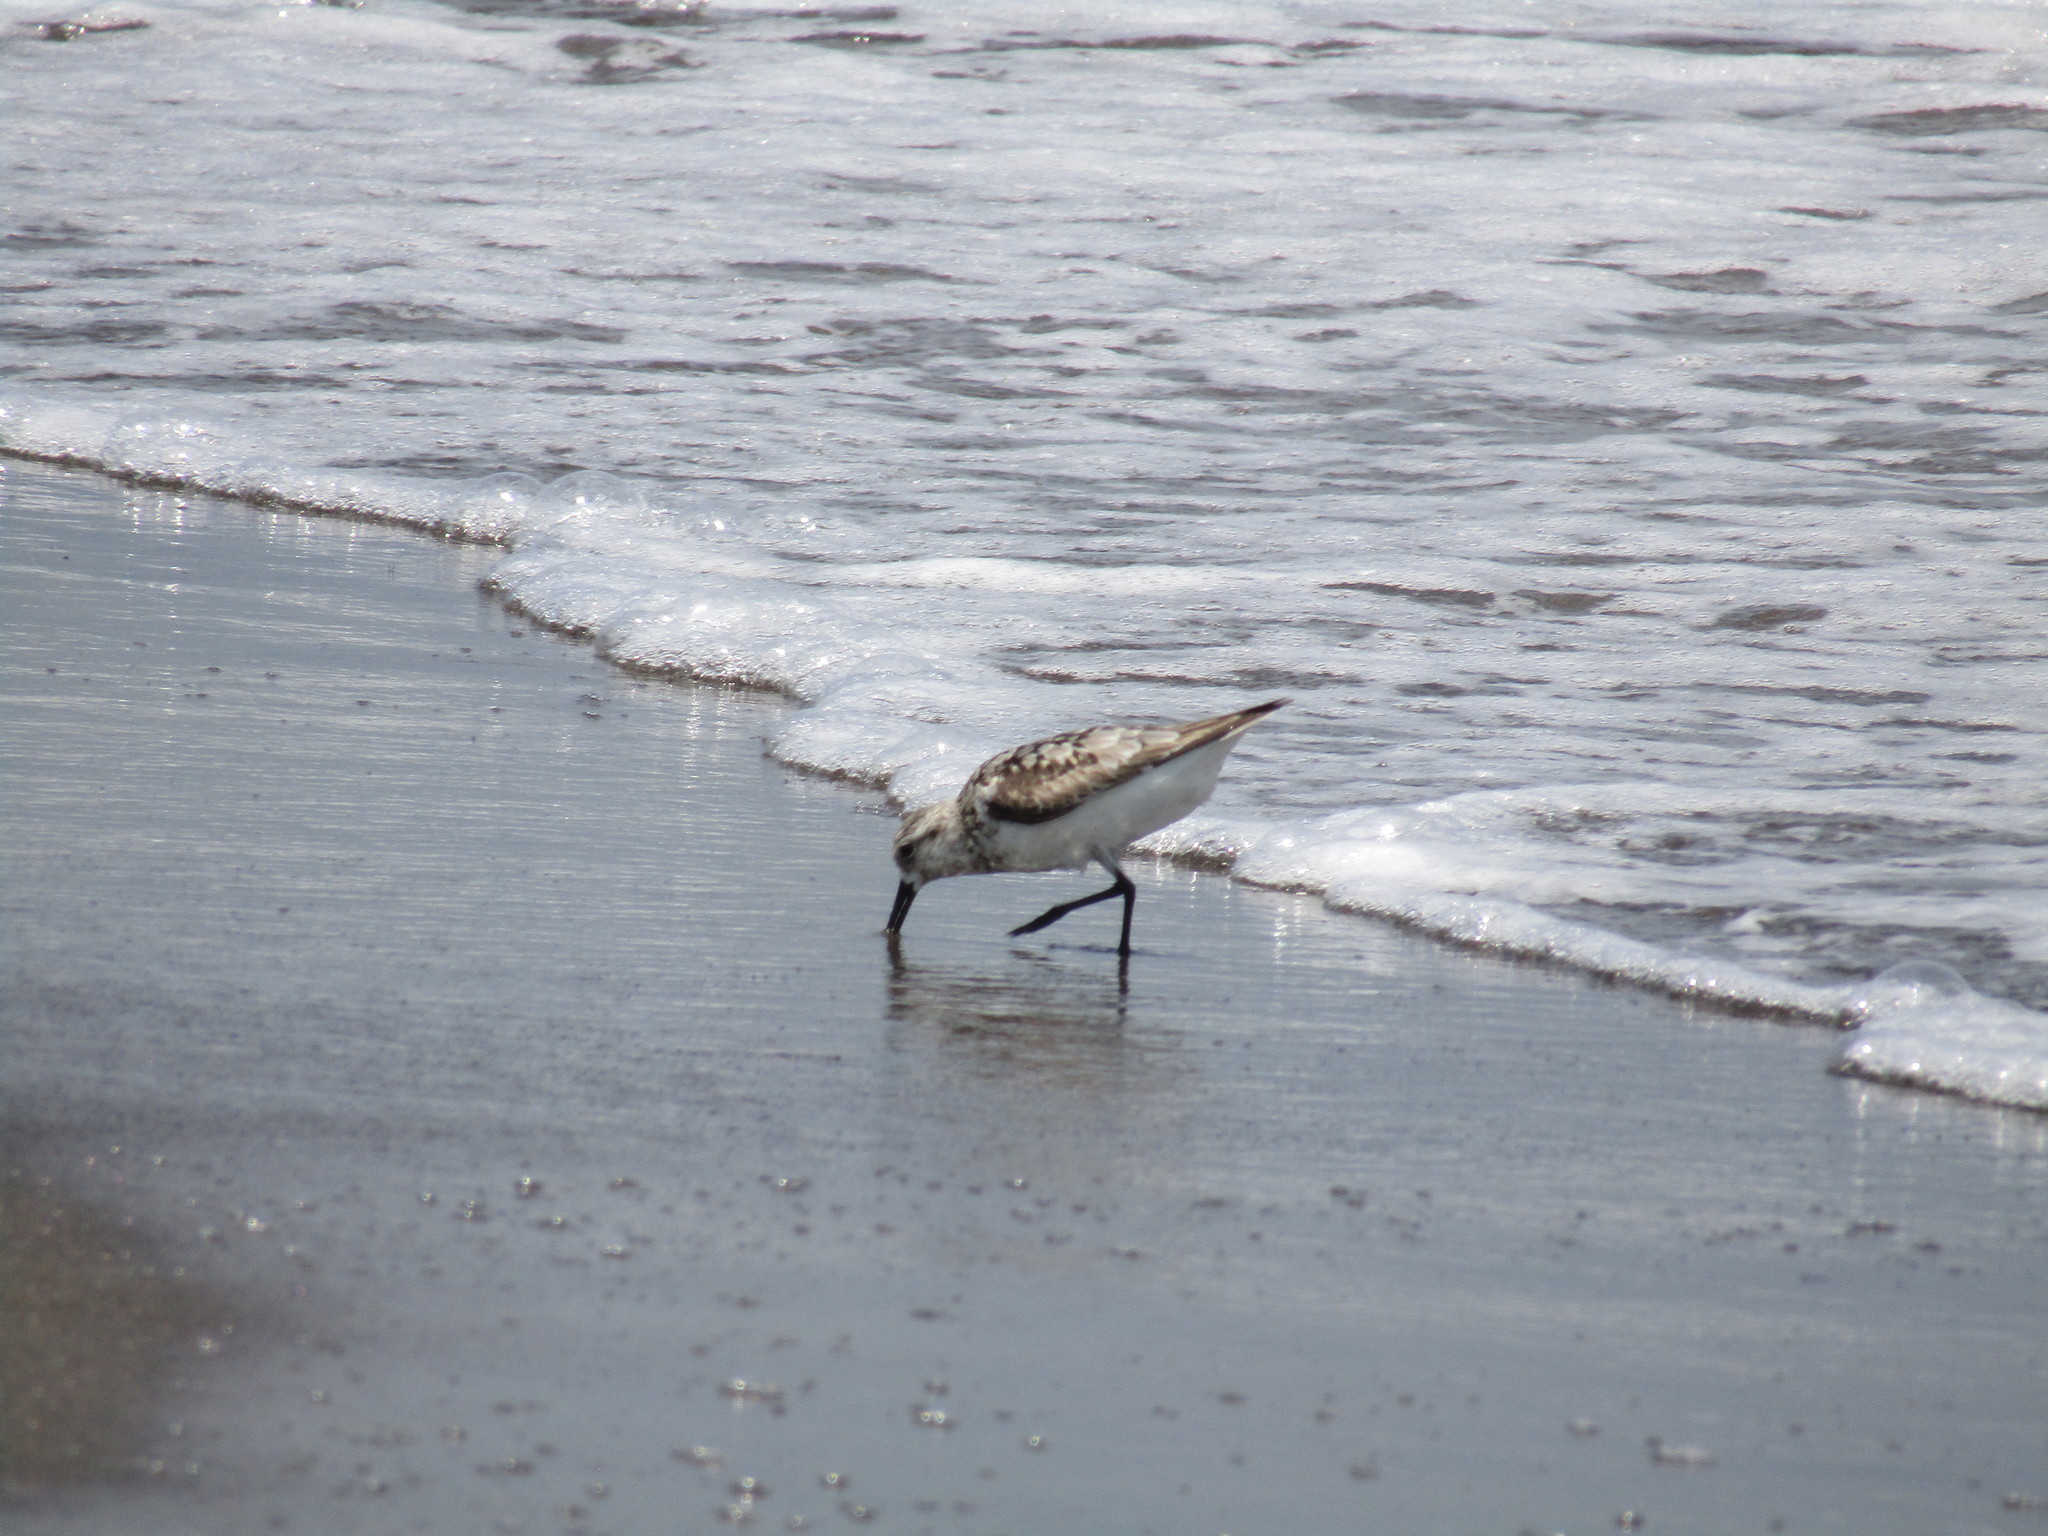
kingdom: Animalia
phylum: Chordata
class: Aves
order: Charadriiformes
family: Scolopacidae
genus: Calidris
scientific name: Calidris alba
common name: Sanderling
